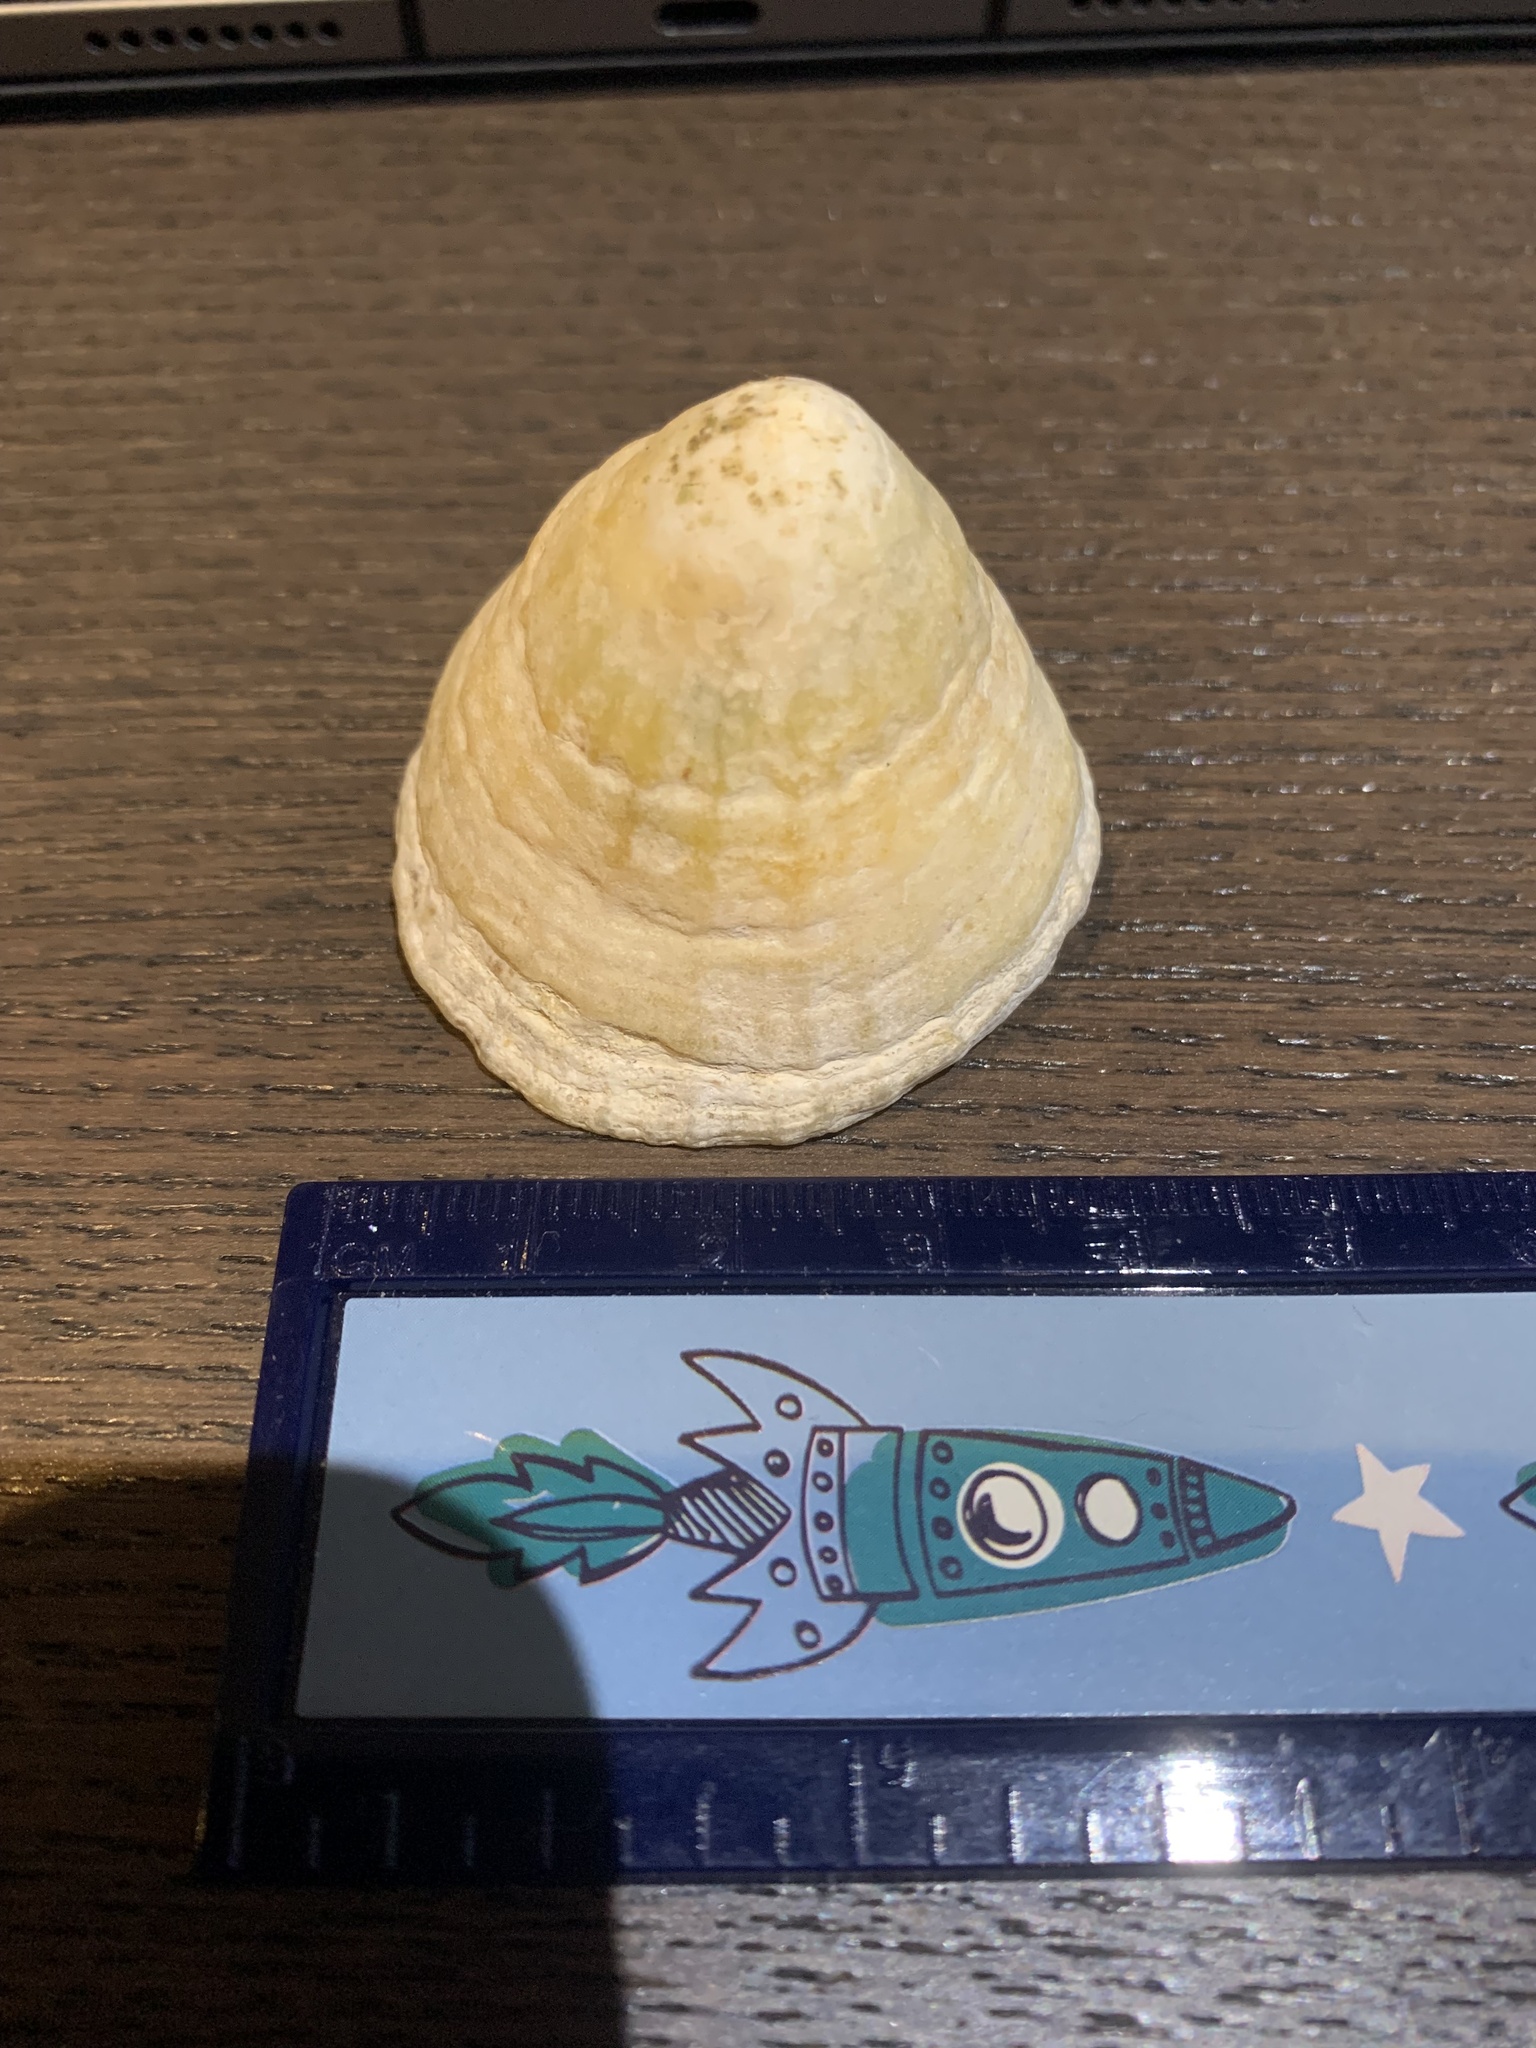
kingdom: Animalia
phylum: Mollusca
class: Gastropoda
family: Patellidae
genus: Patella
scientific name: Patella vulgata
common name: Common limpet
